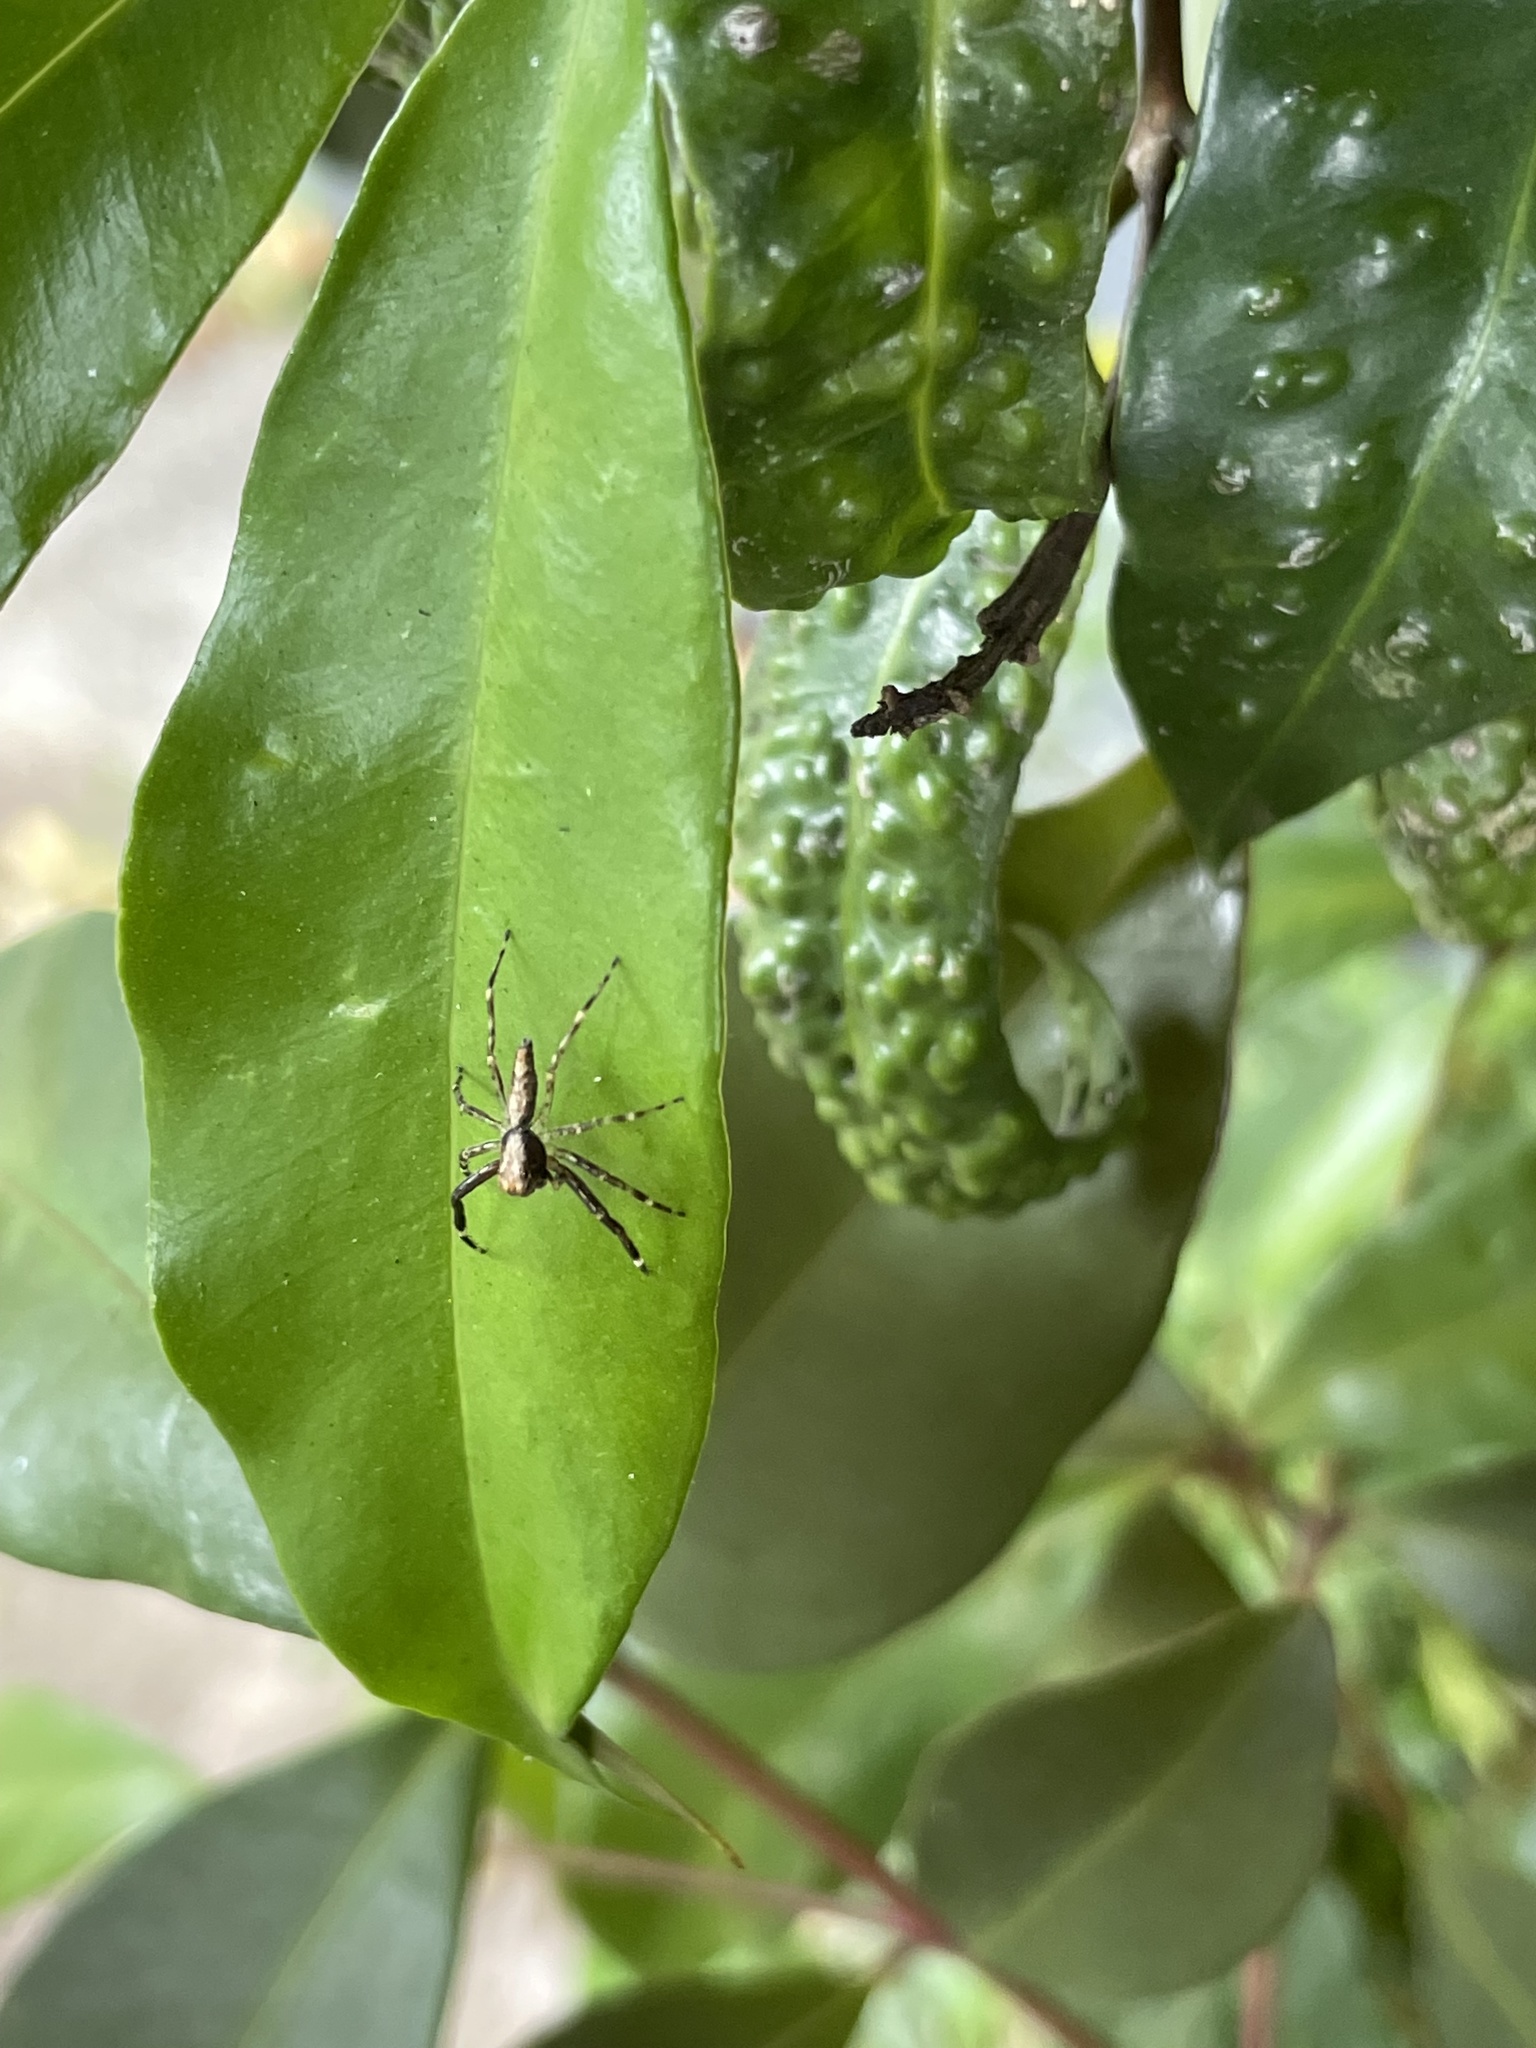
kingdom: Animalia
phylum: Arthropoda
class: Arachnida
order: Araneae
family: Salticidae
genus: Helpis
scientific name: Helpis minitabunda
